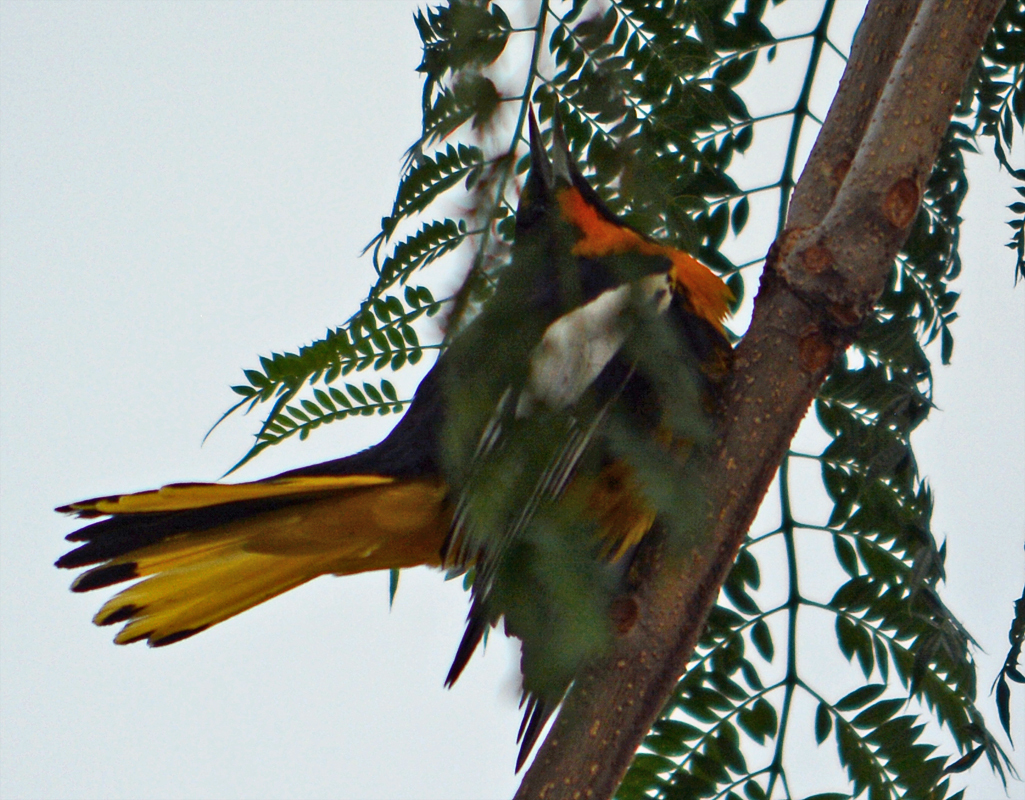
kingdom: Animalia
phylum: Chordata
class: Aves
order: Passeriformes
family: Icteridae
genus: Icterus
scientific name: Icterus abeillei
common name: Black-backed oriole
